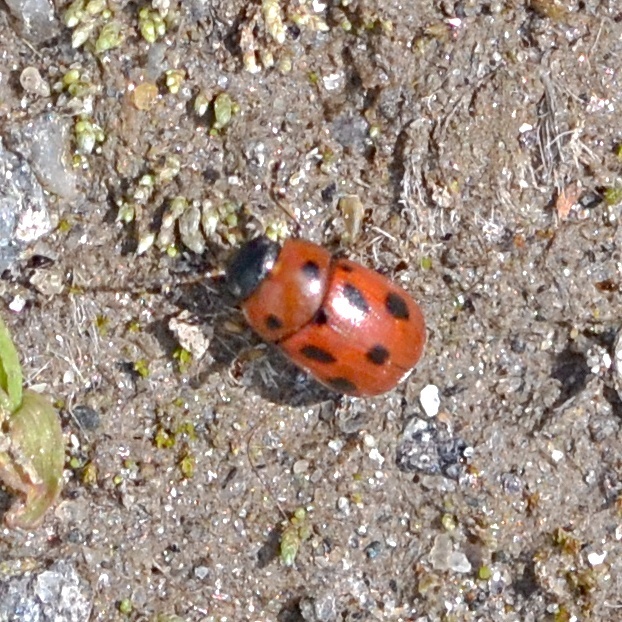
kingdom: Animalia
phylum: Arthropoda
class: Insecta
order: Coleoptera
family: Chrysomelidae
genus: Gonioctena
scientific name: Gonioctena fornicata
